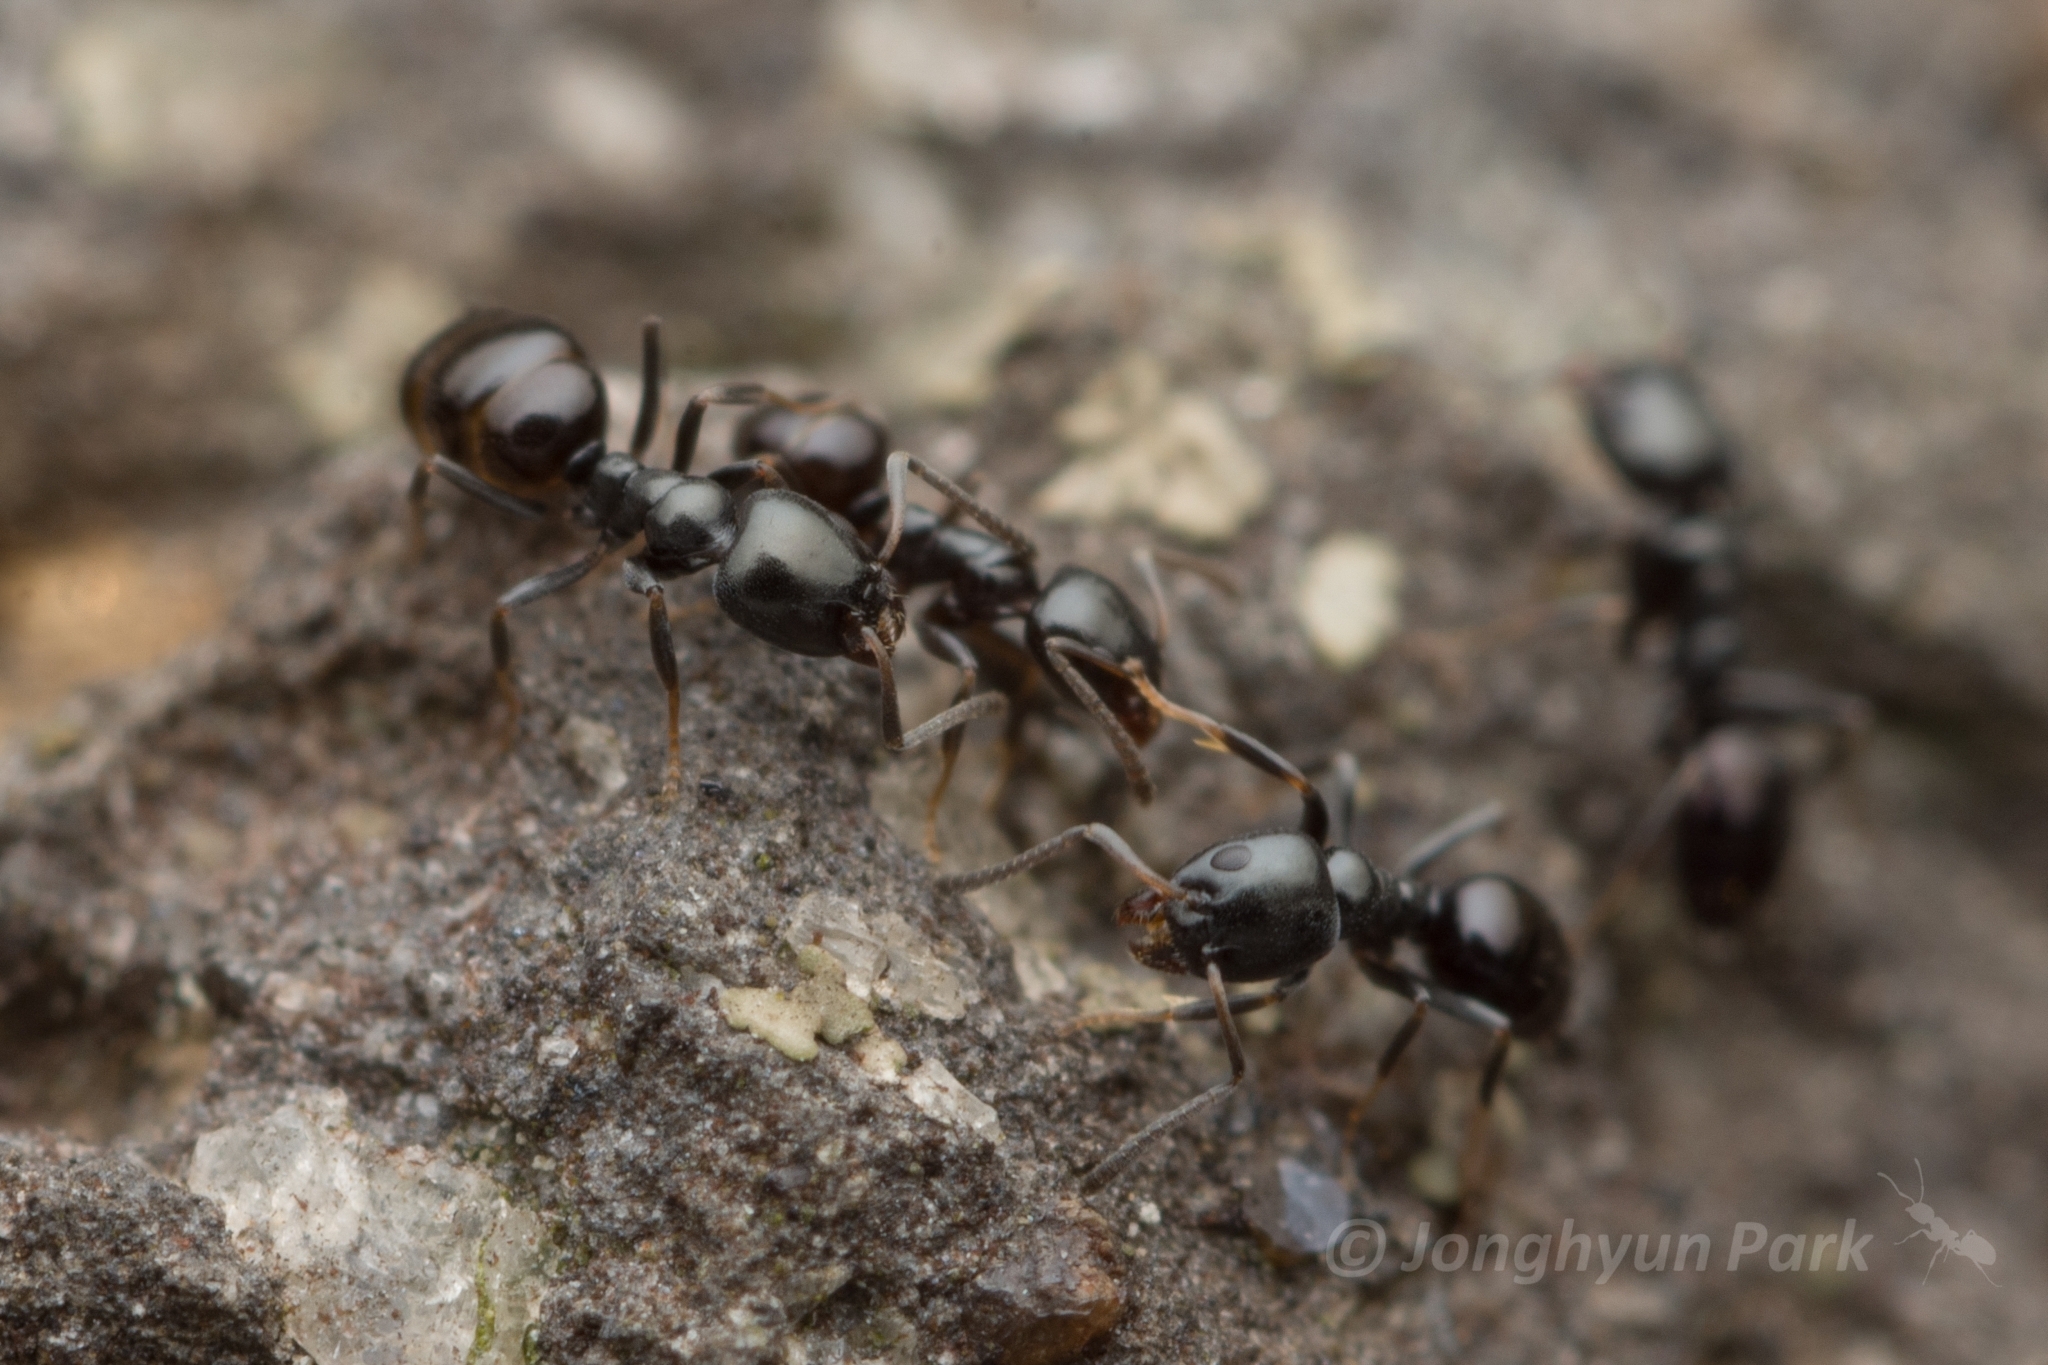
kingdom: Animalia
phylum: Arthropoda
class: Insecta
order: Hymenoptera
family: Formicidae
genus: Ochetellus
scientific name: Ochetellus glaber
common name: Ant
